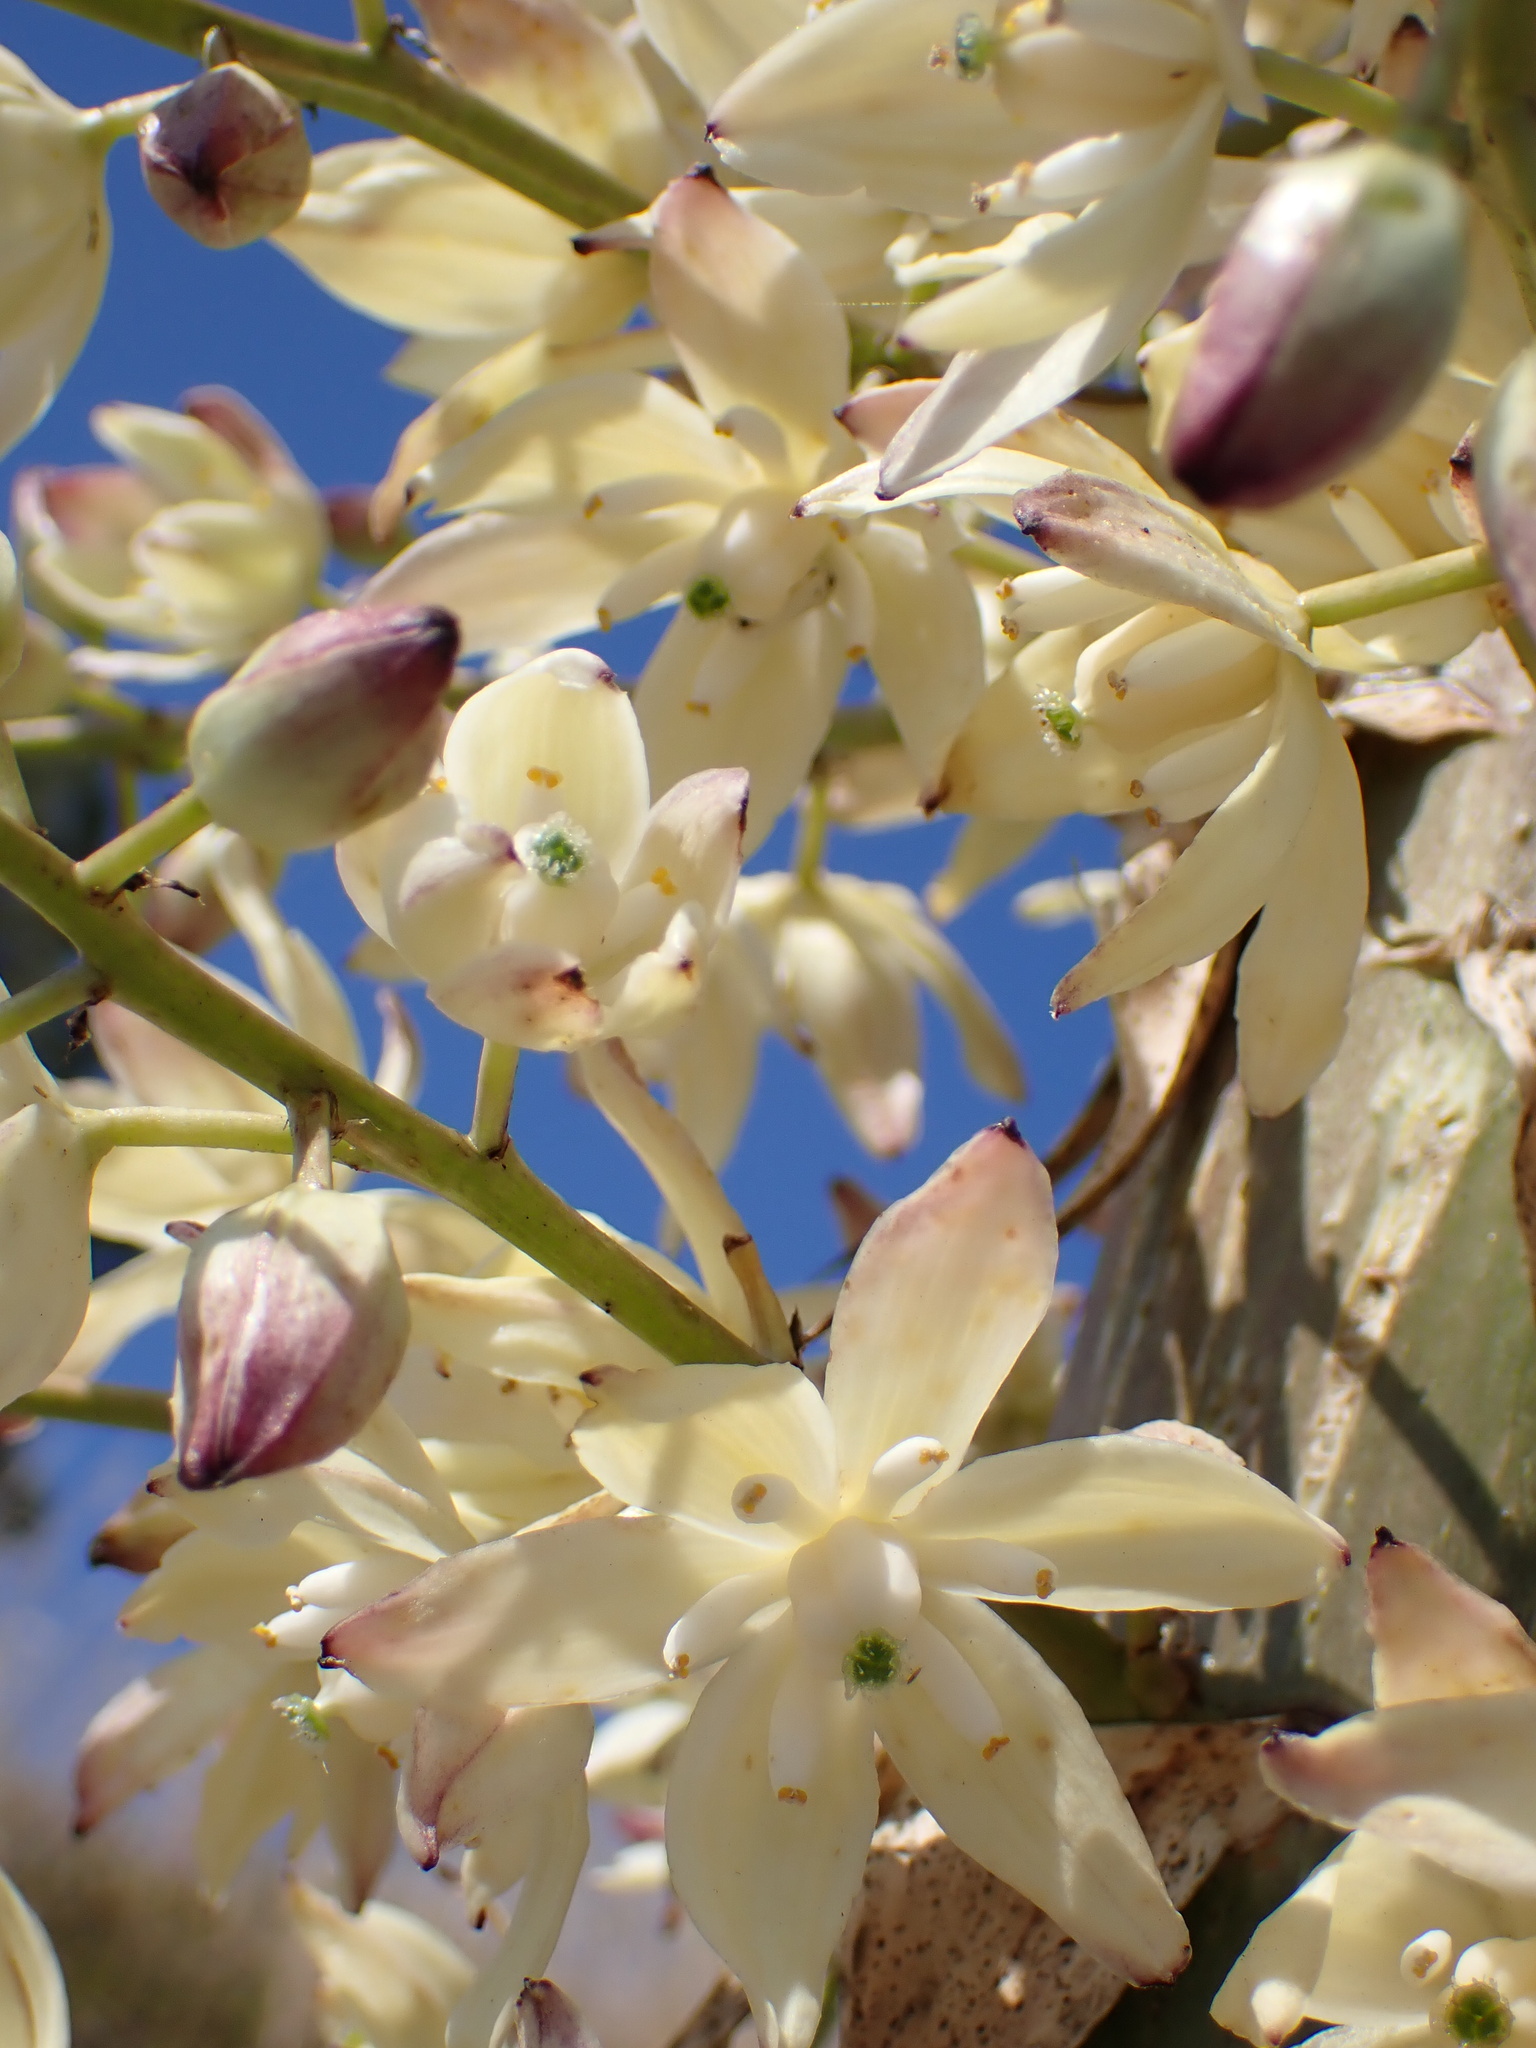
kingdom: Plantae
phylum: Tracheophyta
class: Liliopsida
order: Asparagales
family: Asparagaceae
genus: Hesperoyucca
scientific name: Hesperoyucca whipplei
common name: Our lord's-candle
